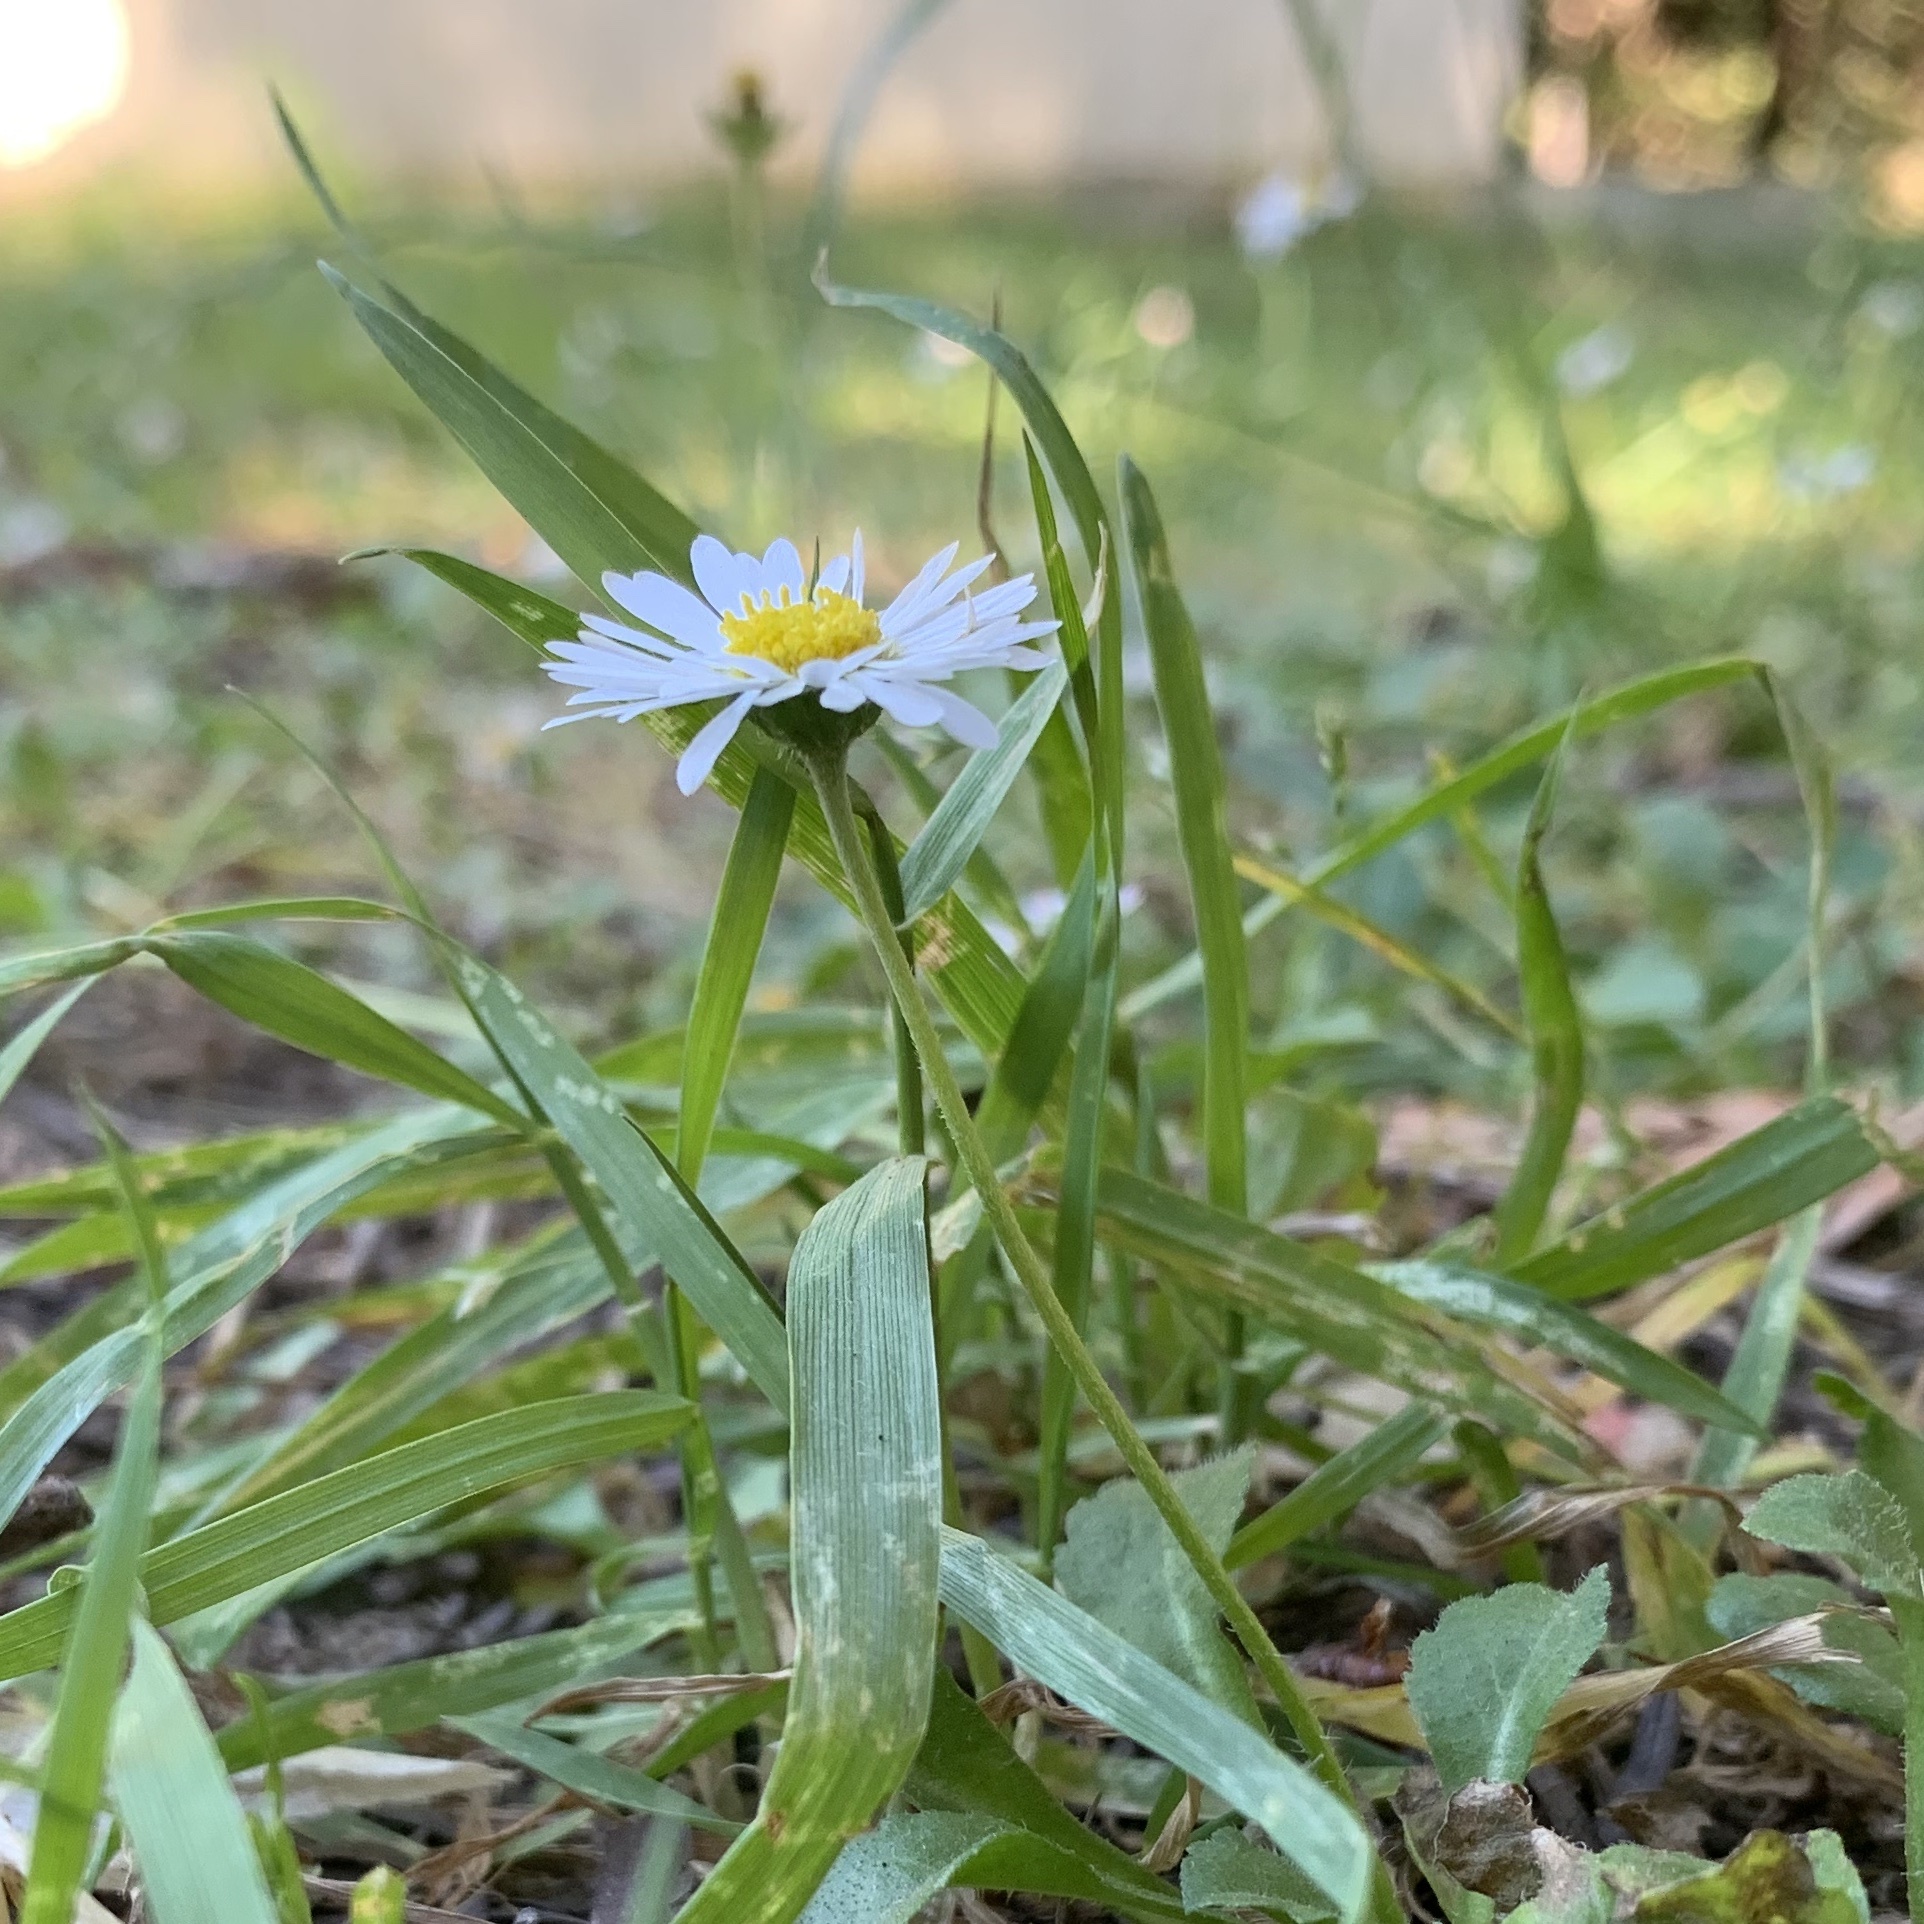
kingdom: Plantae
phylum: Tracheophyta
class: Magnoliopsida
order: Asterales
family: Asteraceae
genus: Bellis
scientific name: Bellis perennis
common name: Lawndaisy
